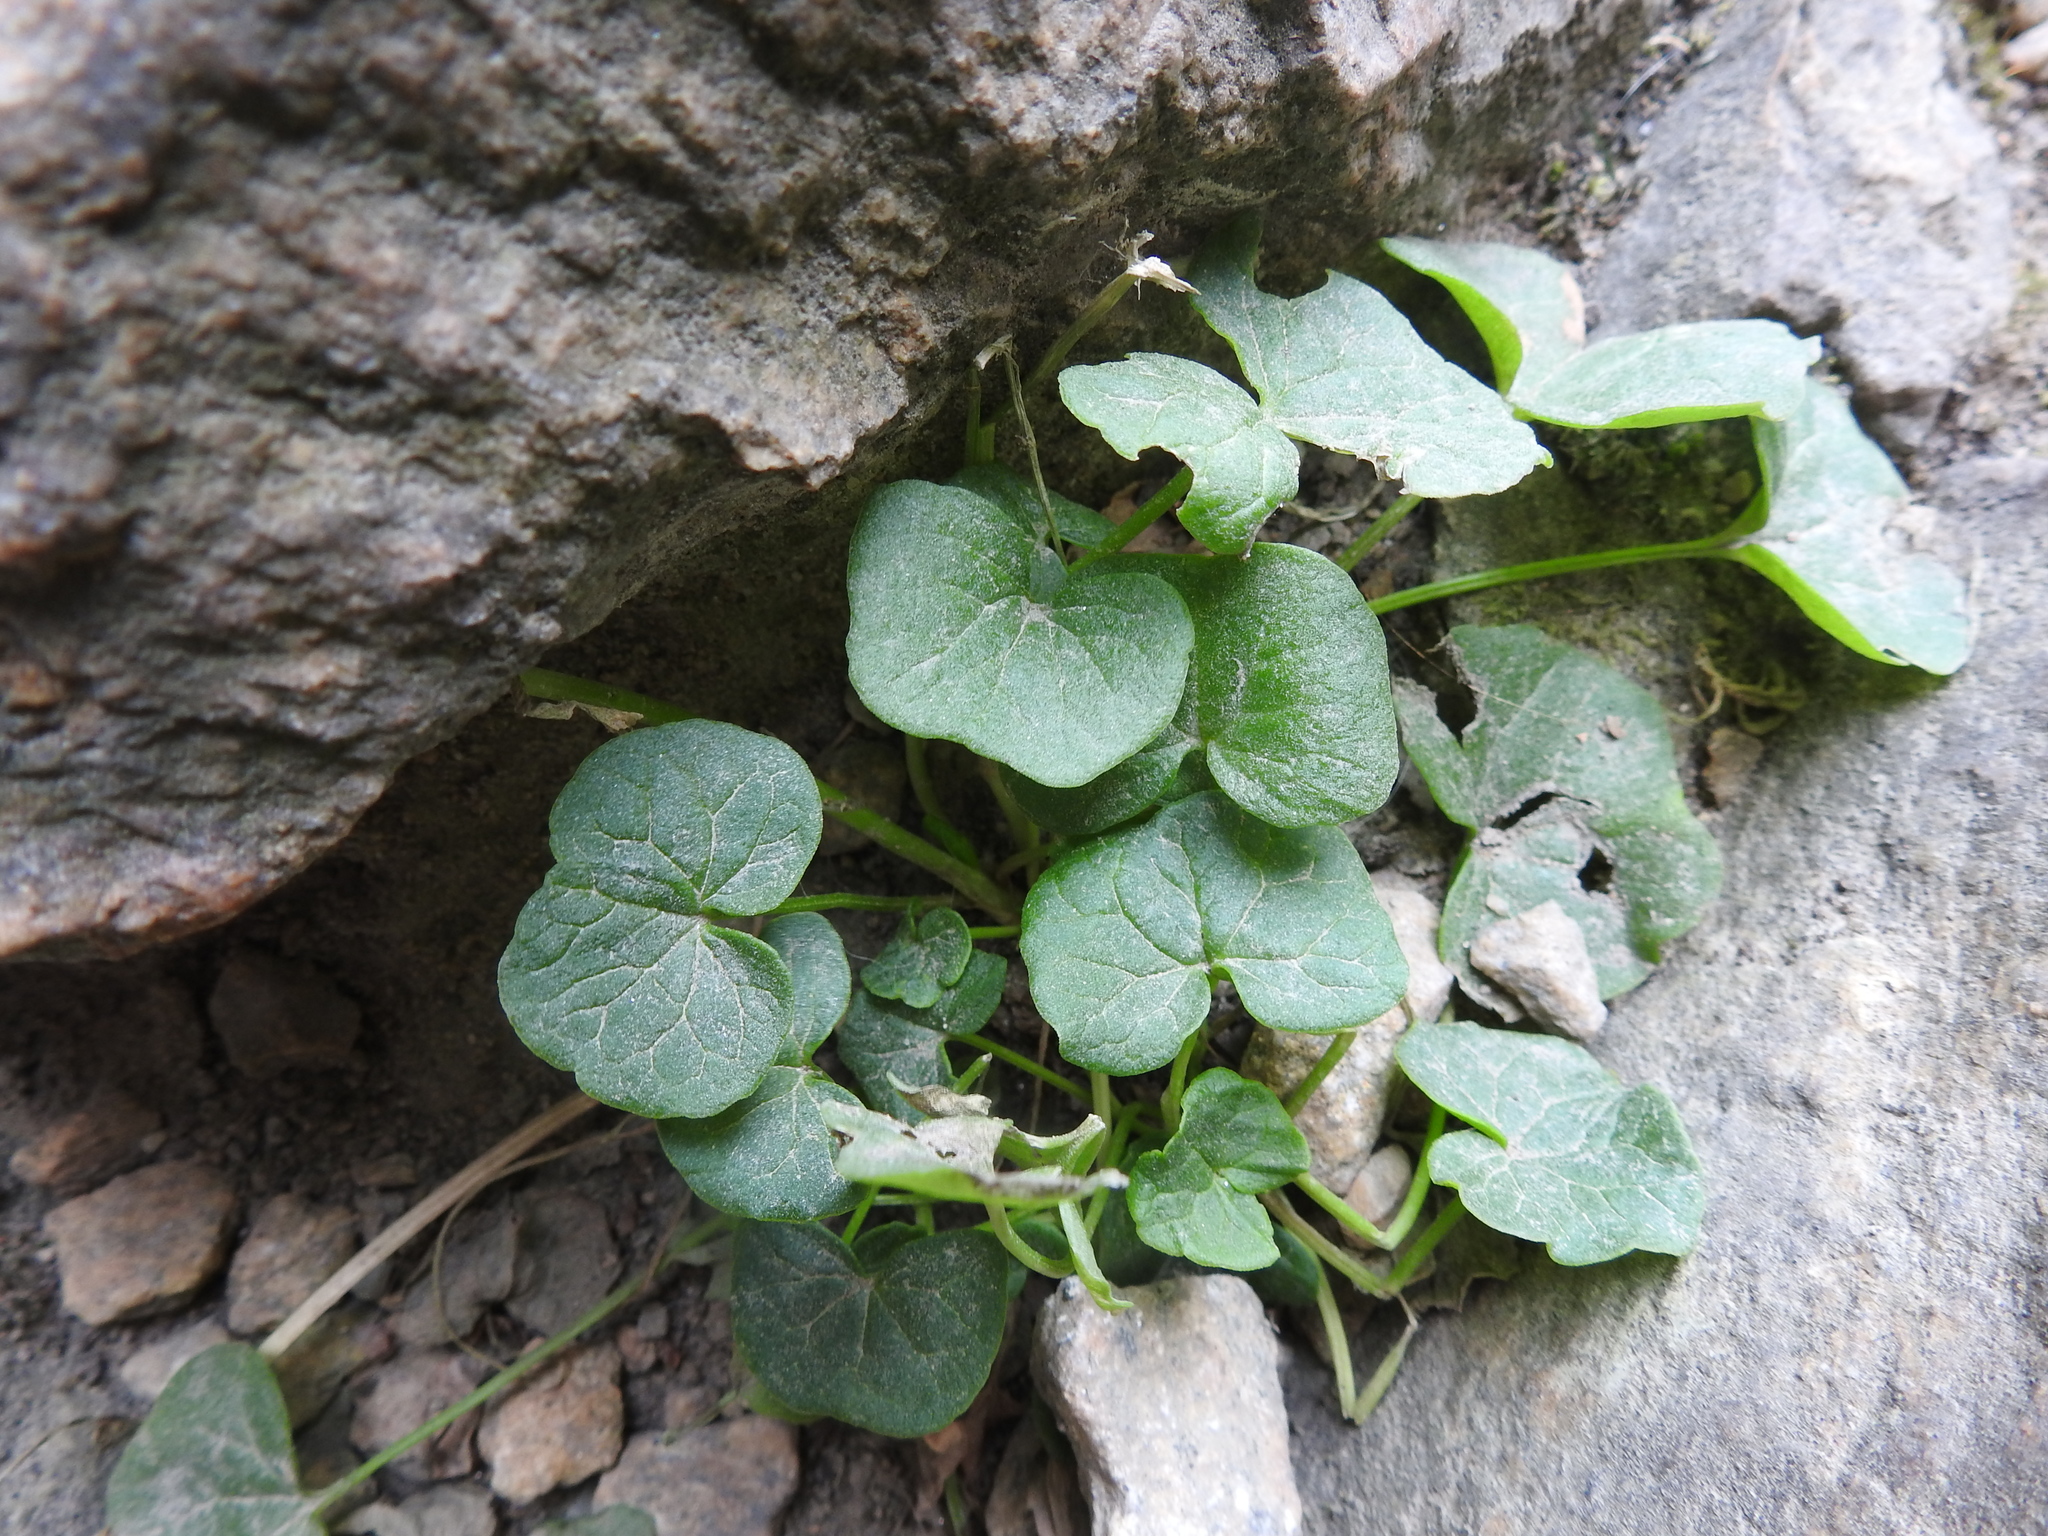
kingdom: Plantae
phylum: Tracheophyta
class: Magnoliopsida
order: Ranunculales
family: Ranunculaceae
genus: Ficaria
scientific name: Ficaria verna
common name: Lesser celandine
